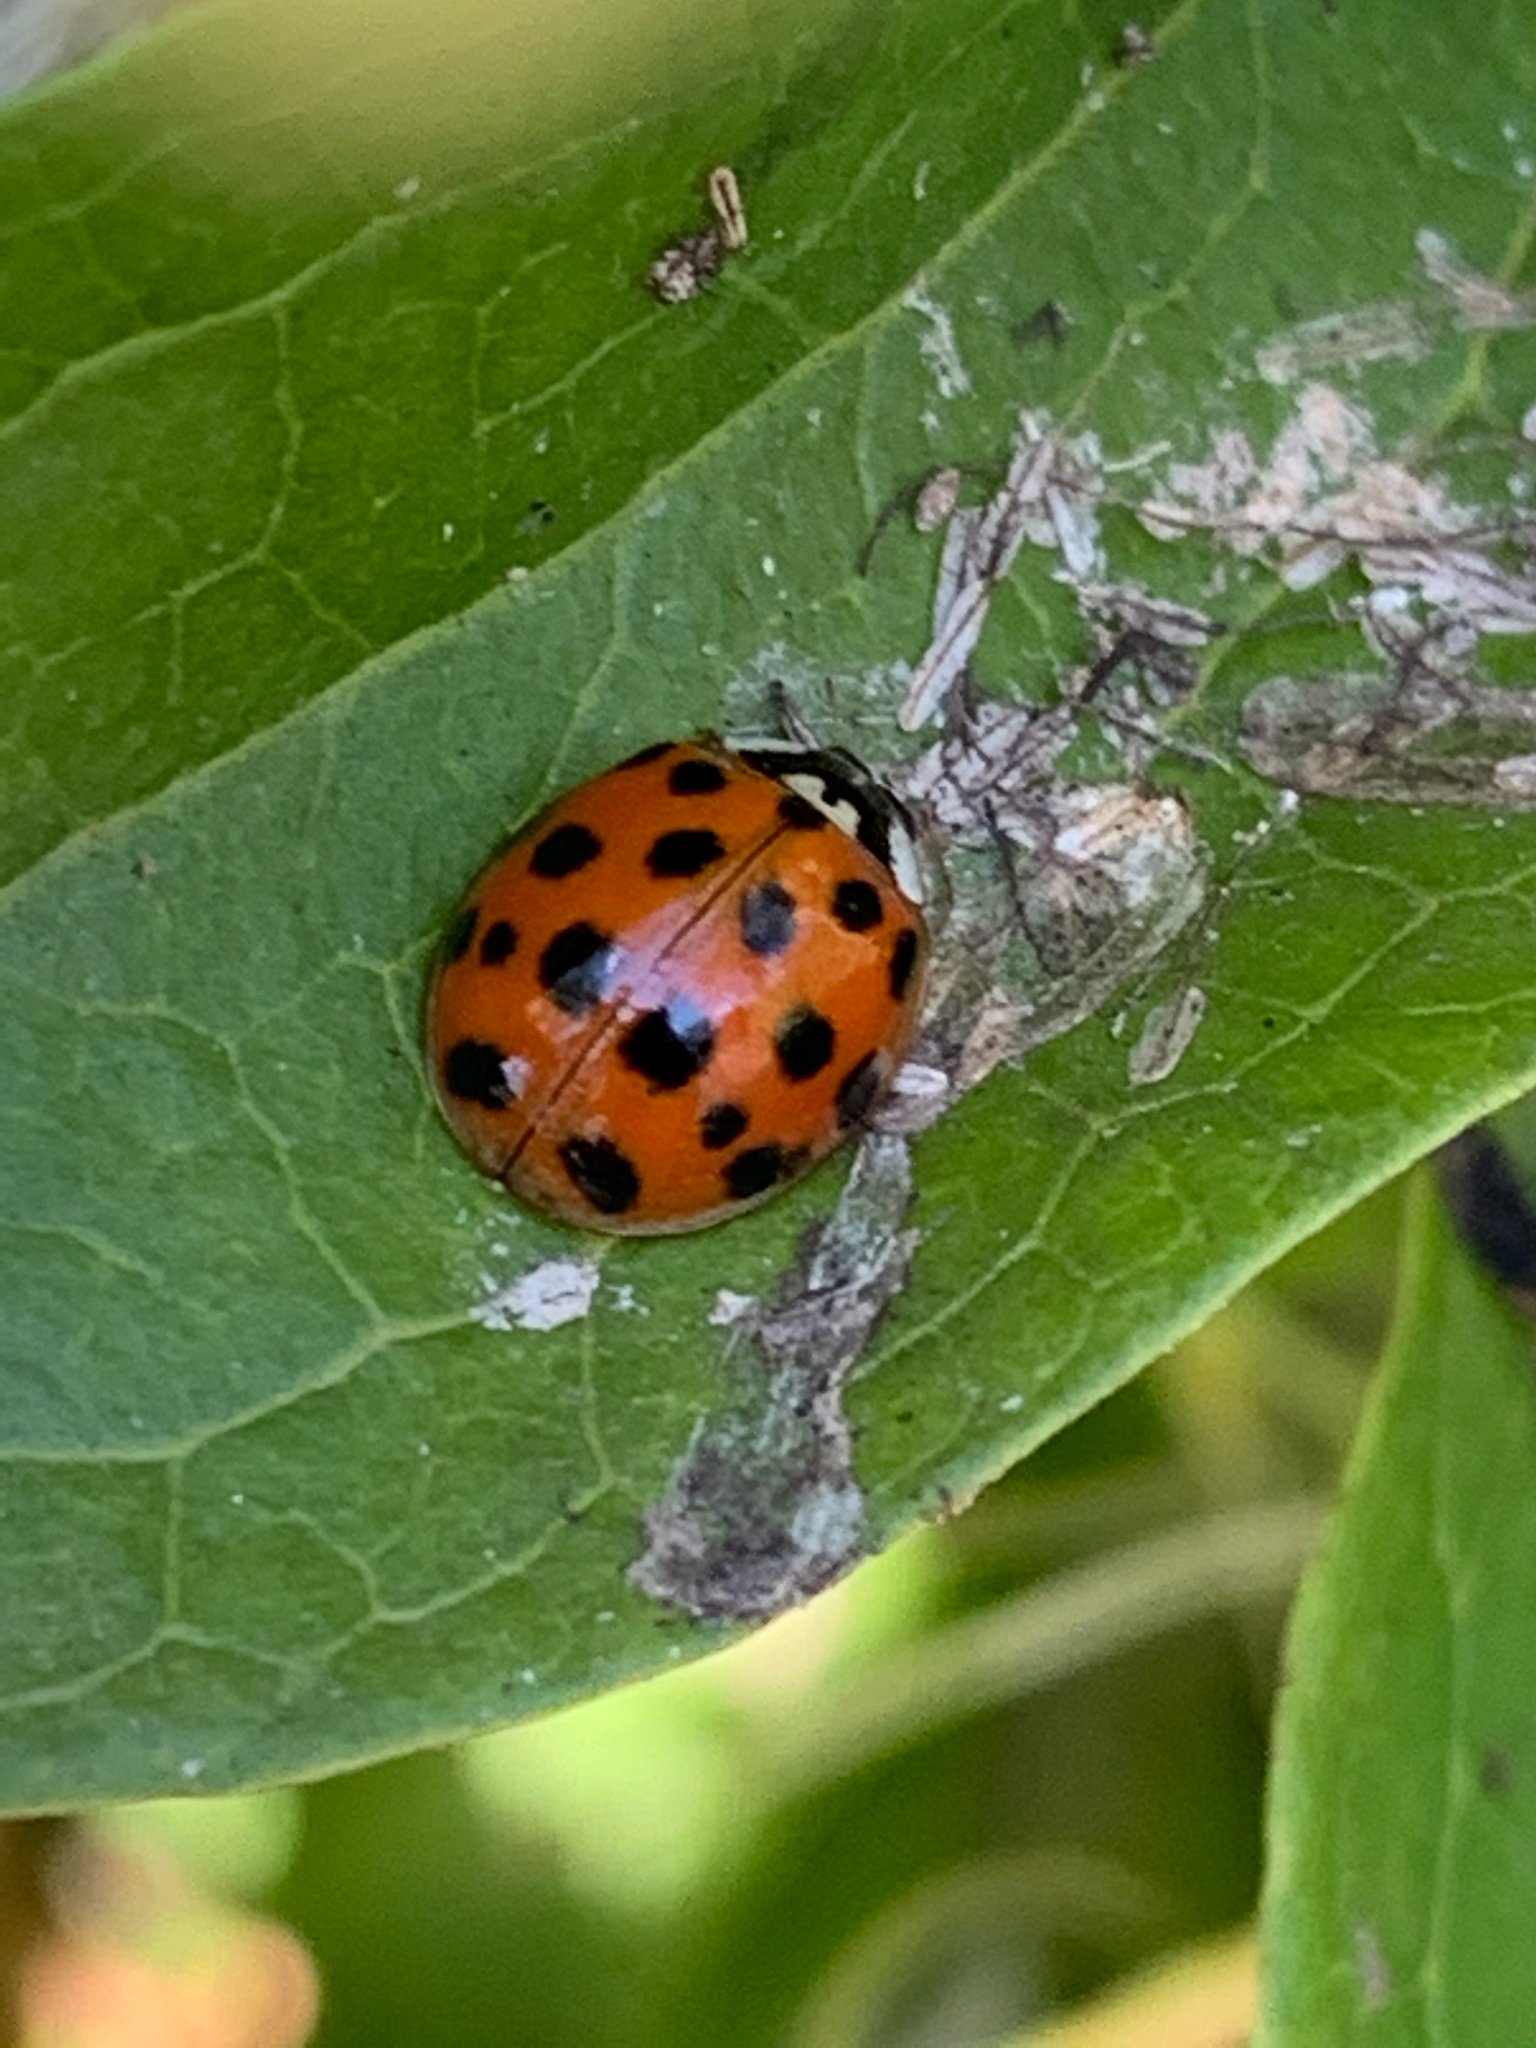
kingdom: Animalia
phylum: Arthropoda
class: Insecta
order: Coleoptera
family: Coccinellidae
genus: Harmonia
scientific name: Harmonia axyridis
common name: Harlequin ladybird
